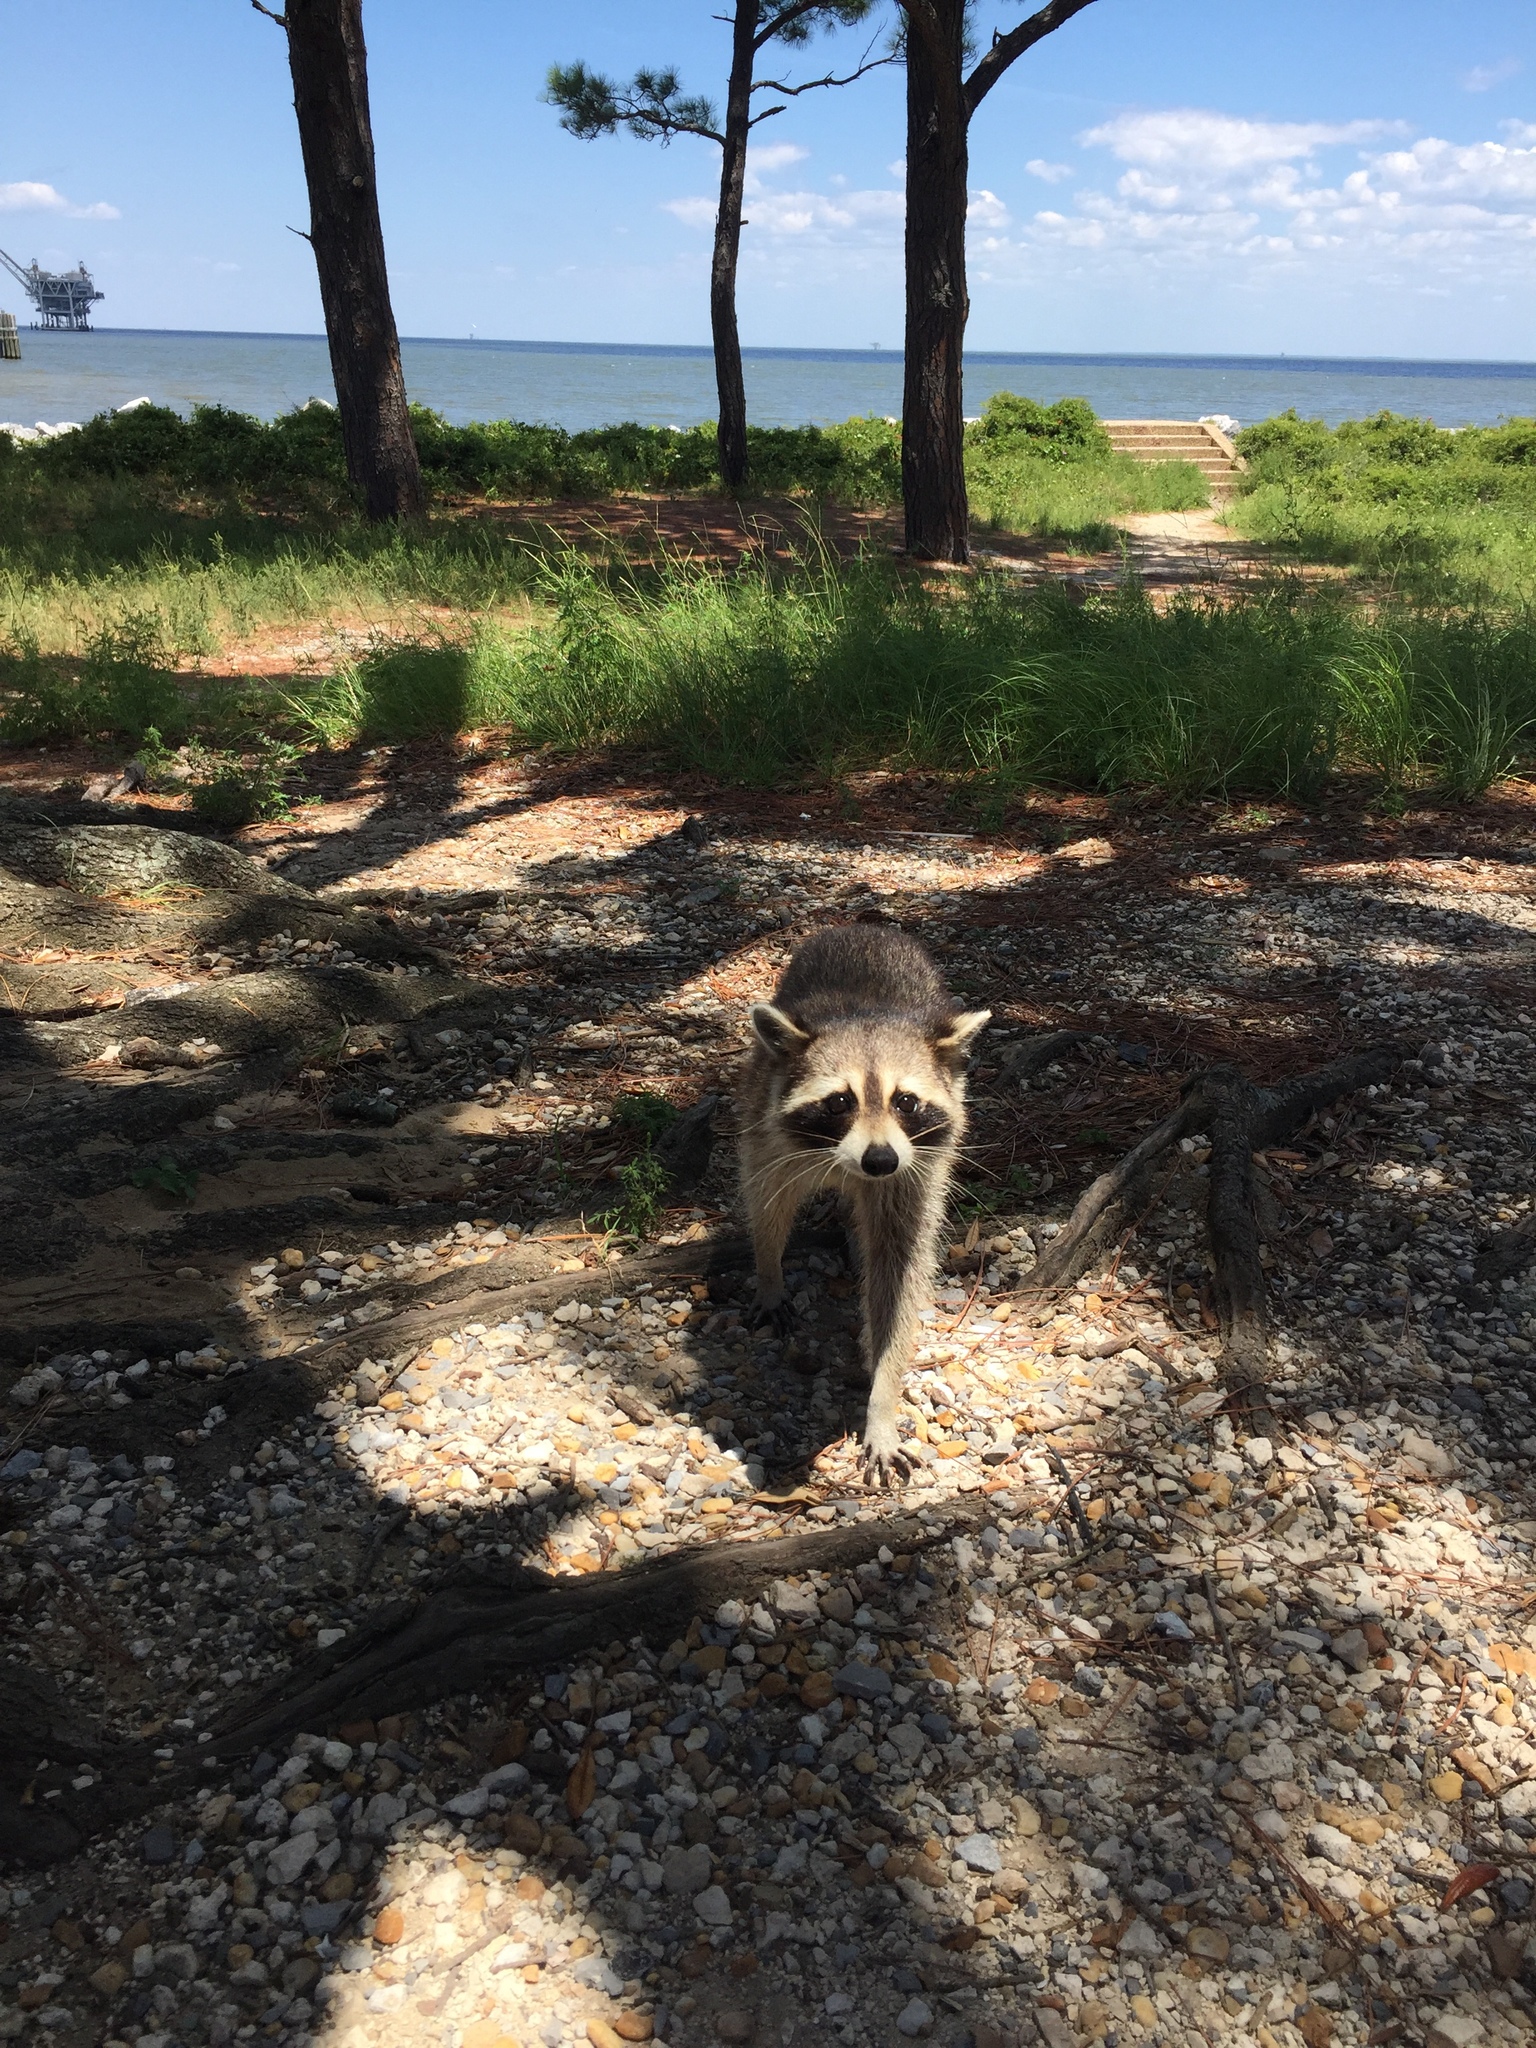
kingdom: Animalia
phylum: Chordata
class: Mammalia
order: Carnivora
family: Procyonidae
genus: Procyon
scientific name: Procyon lotor
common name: Raccoon
